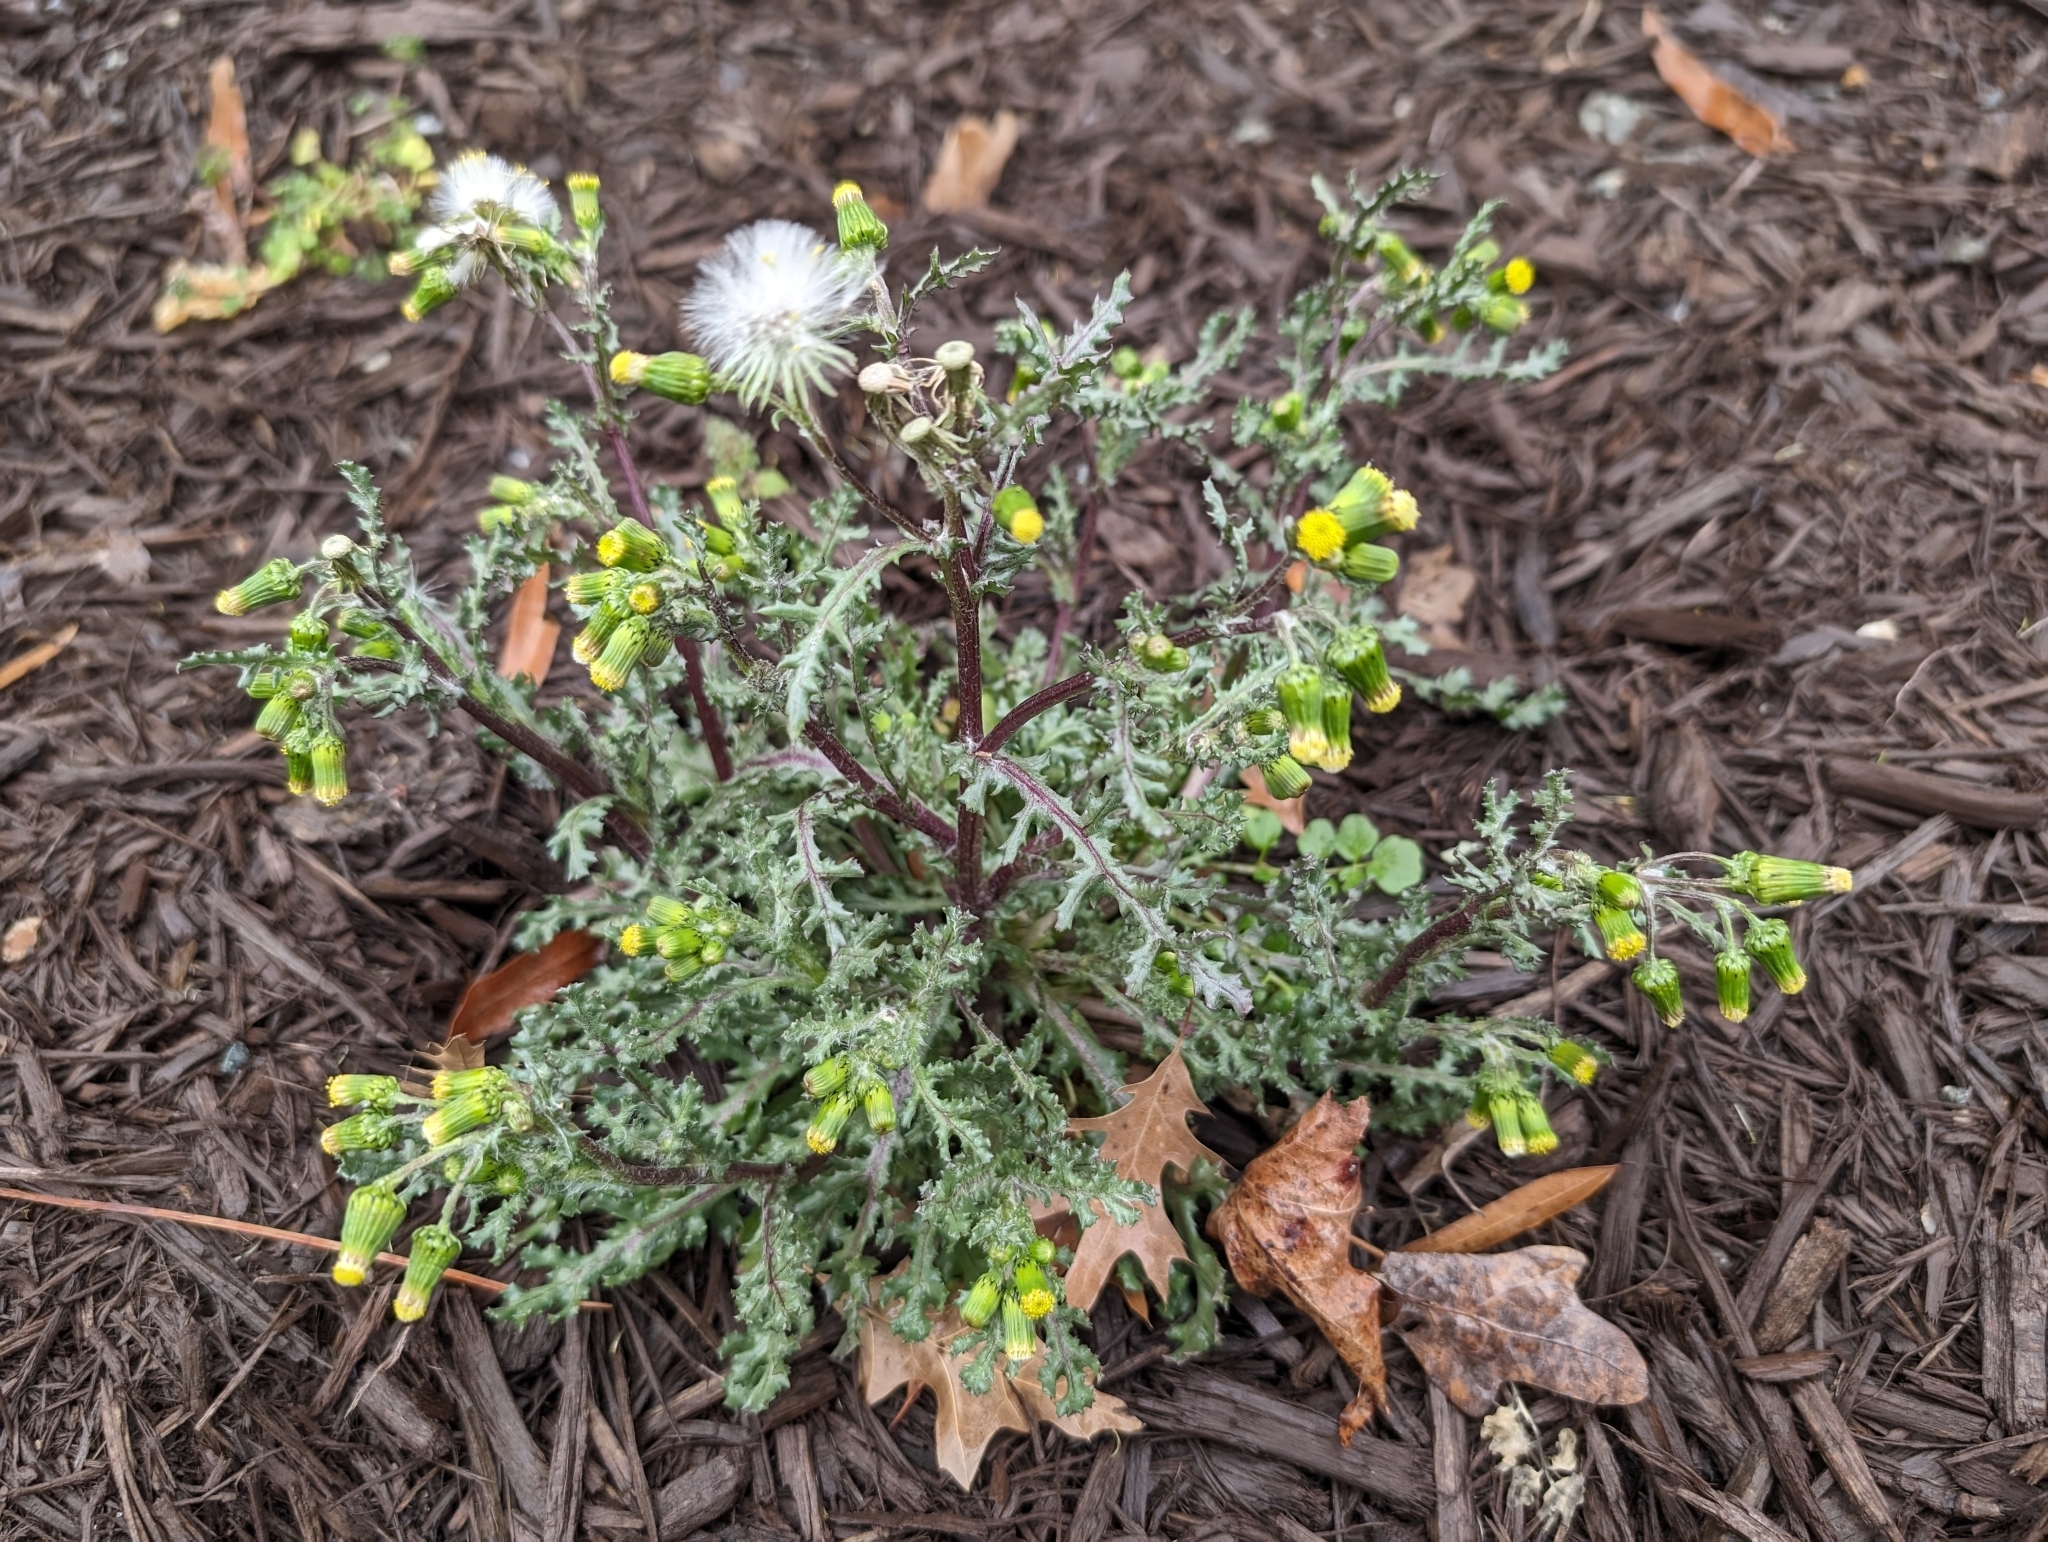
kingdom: Plantae
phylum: Tracheophyta
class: Magnoliopsida
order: Asterales
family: Asteraceae
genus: Senecio
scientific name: Senecio vulgaris
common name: Old-man-in-the-spring
